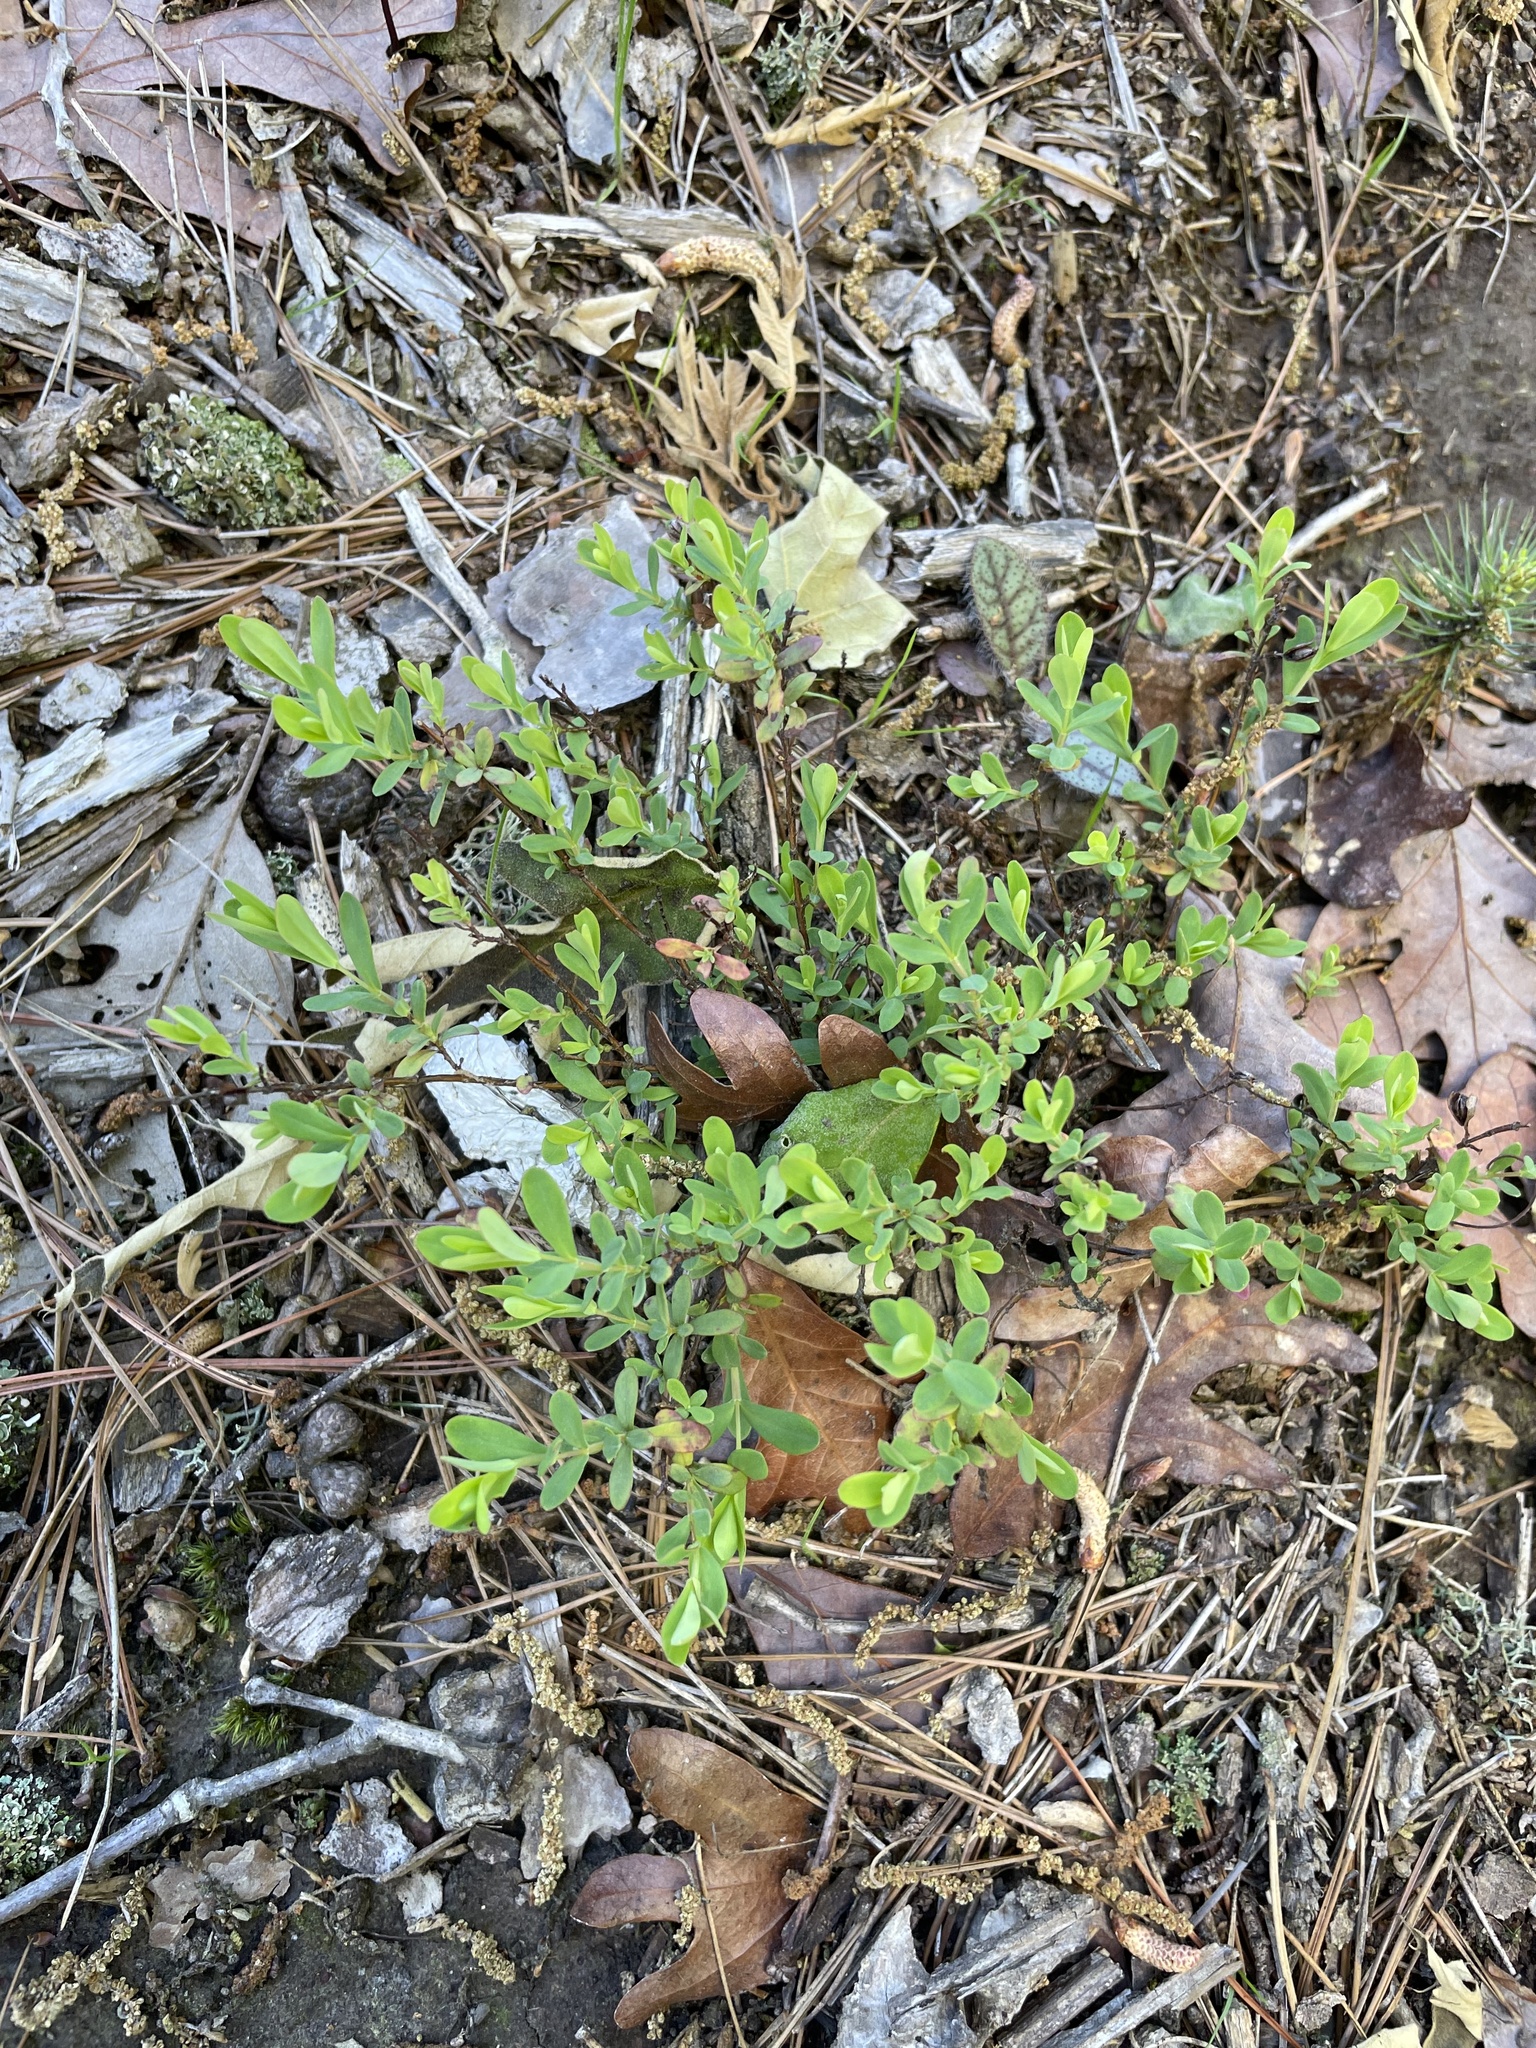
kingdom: Plantae
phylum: Tracheophyta
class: Magnoliopsida
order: Malpighiales
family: Hypericaceae
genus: Hypericum
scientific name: Hypericum hypericoides
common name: St. andrew's cross
